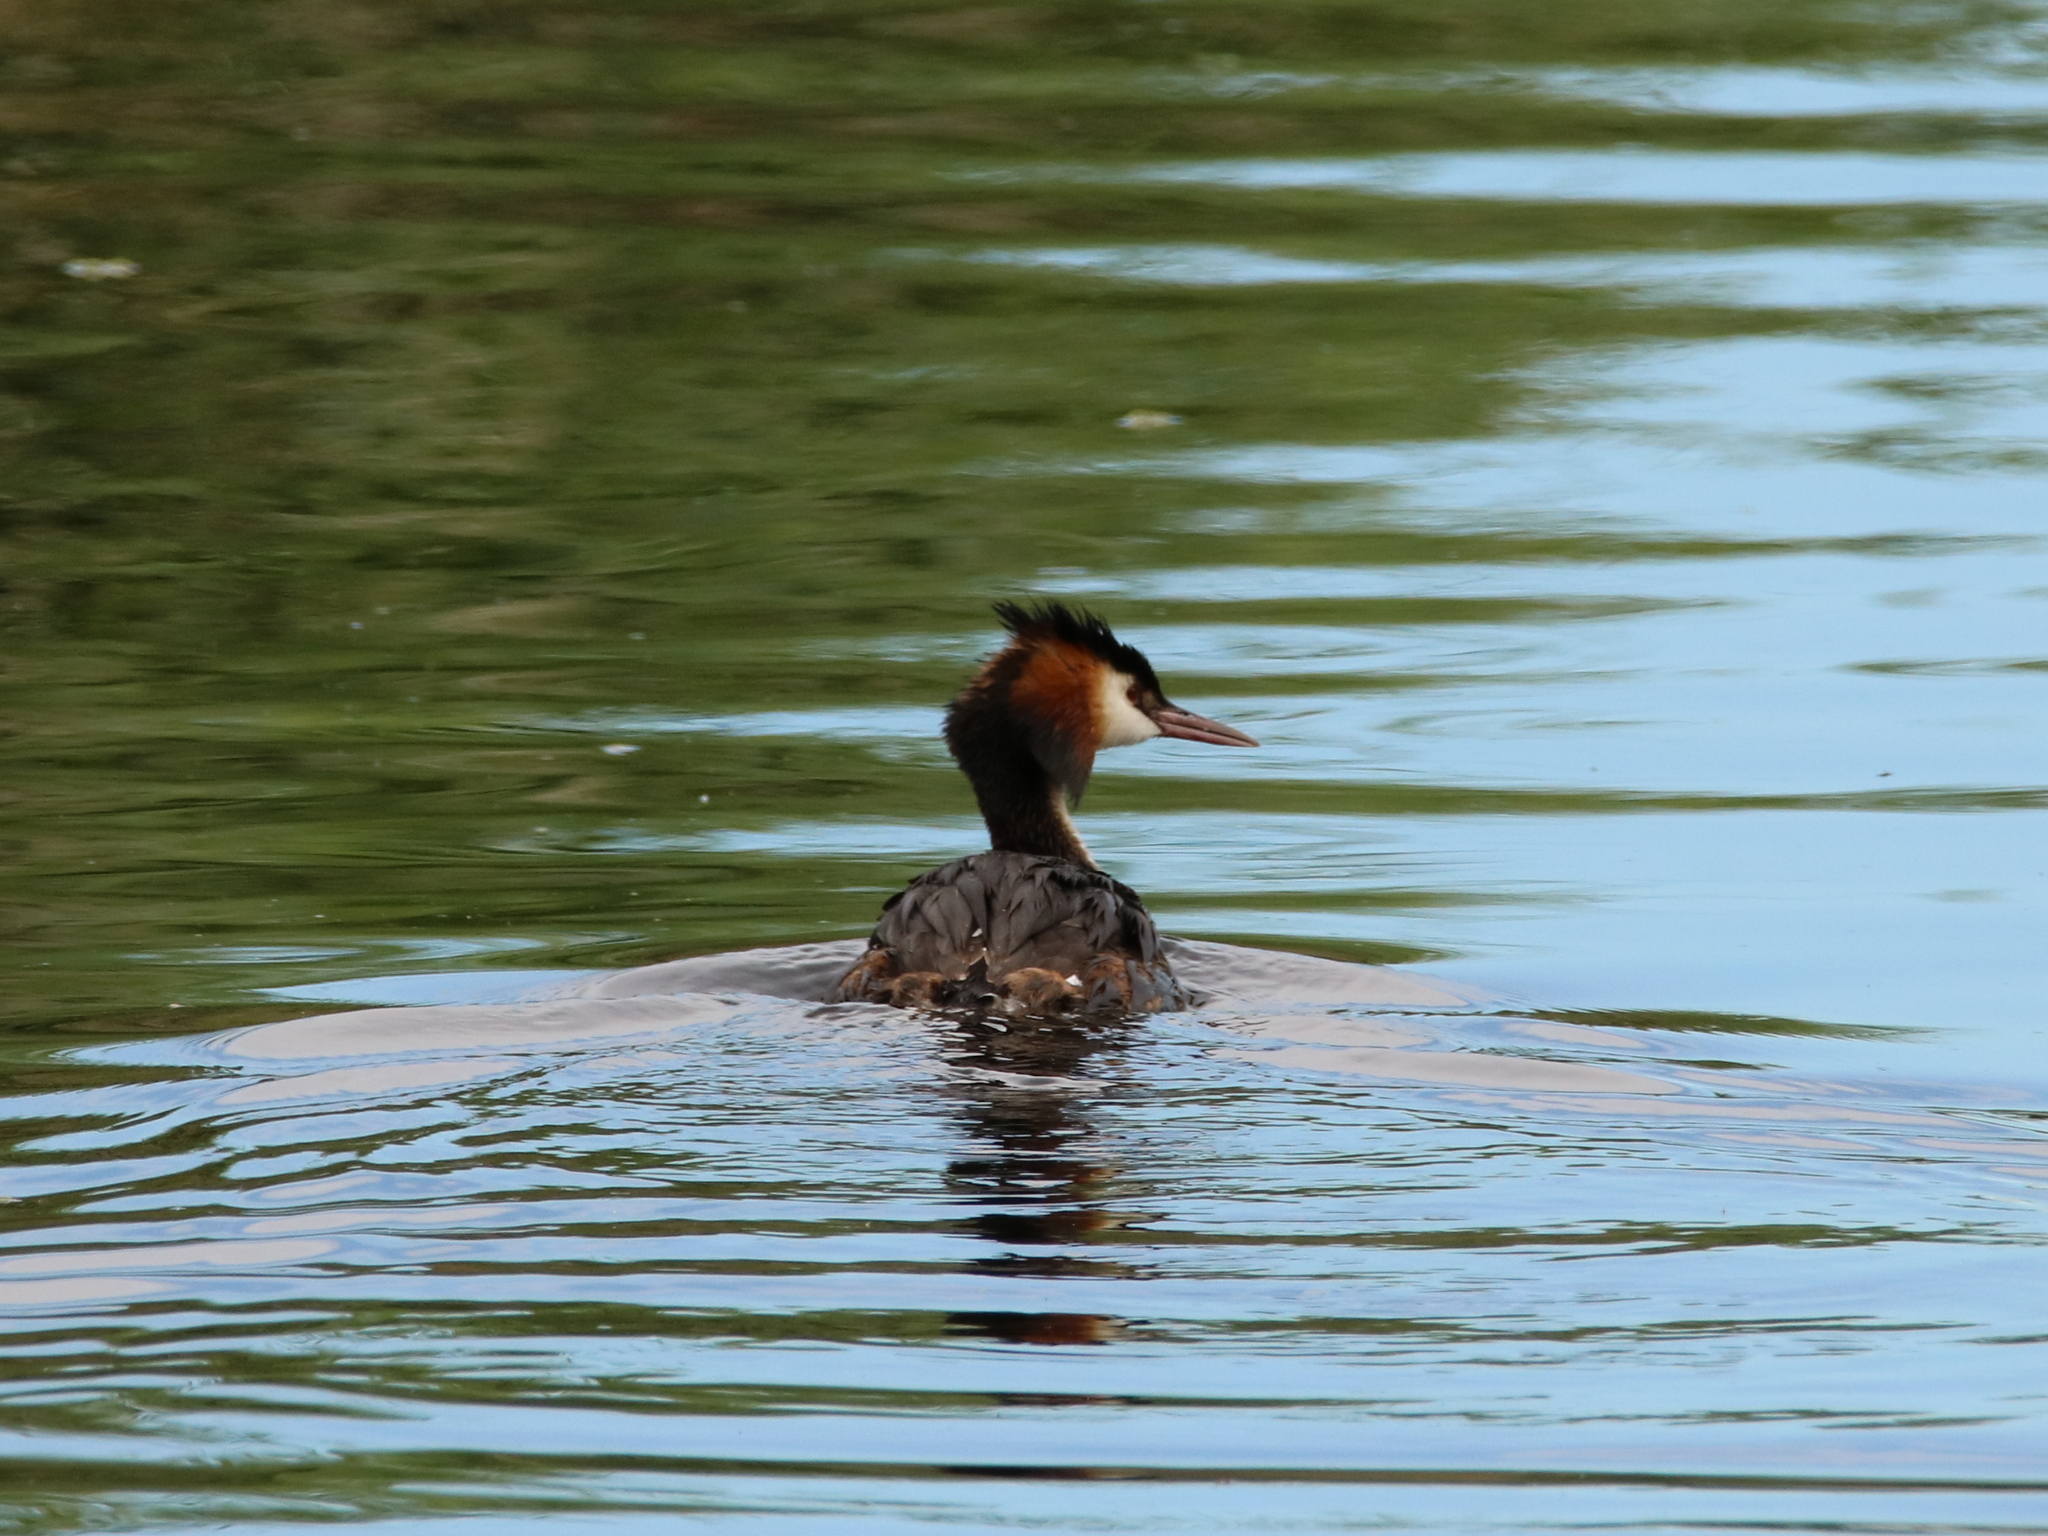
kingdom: Animalia
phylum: Chordata
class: Aves
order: Podicipediformes
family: Podicipedidae
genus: Podiceps
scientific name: Podiceps cristatus
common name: Great crested grebe
